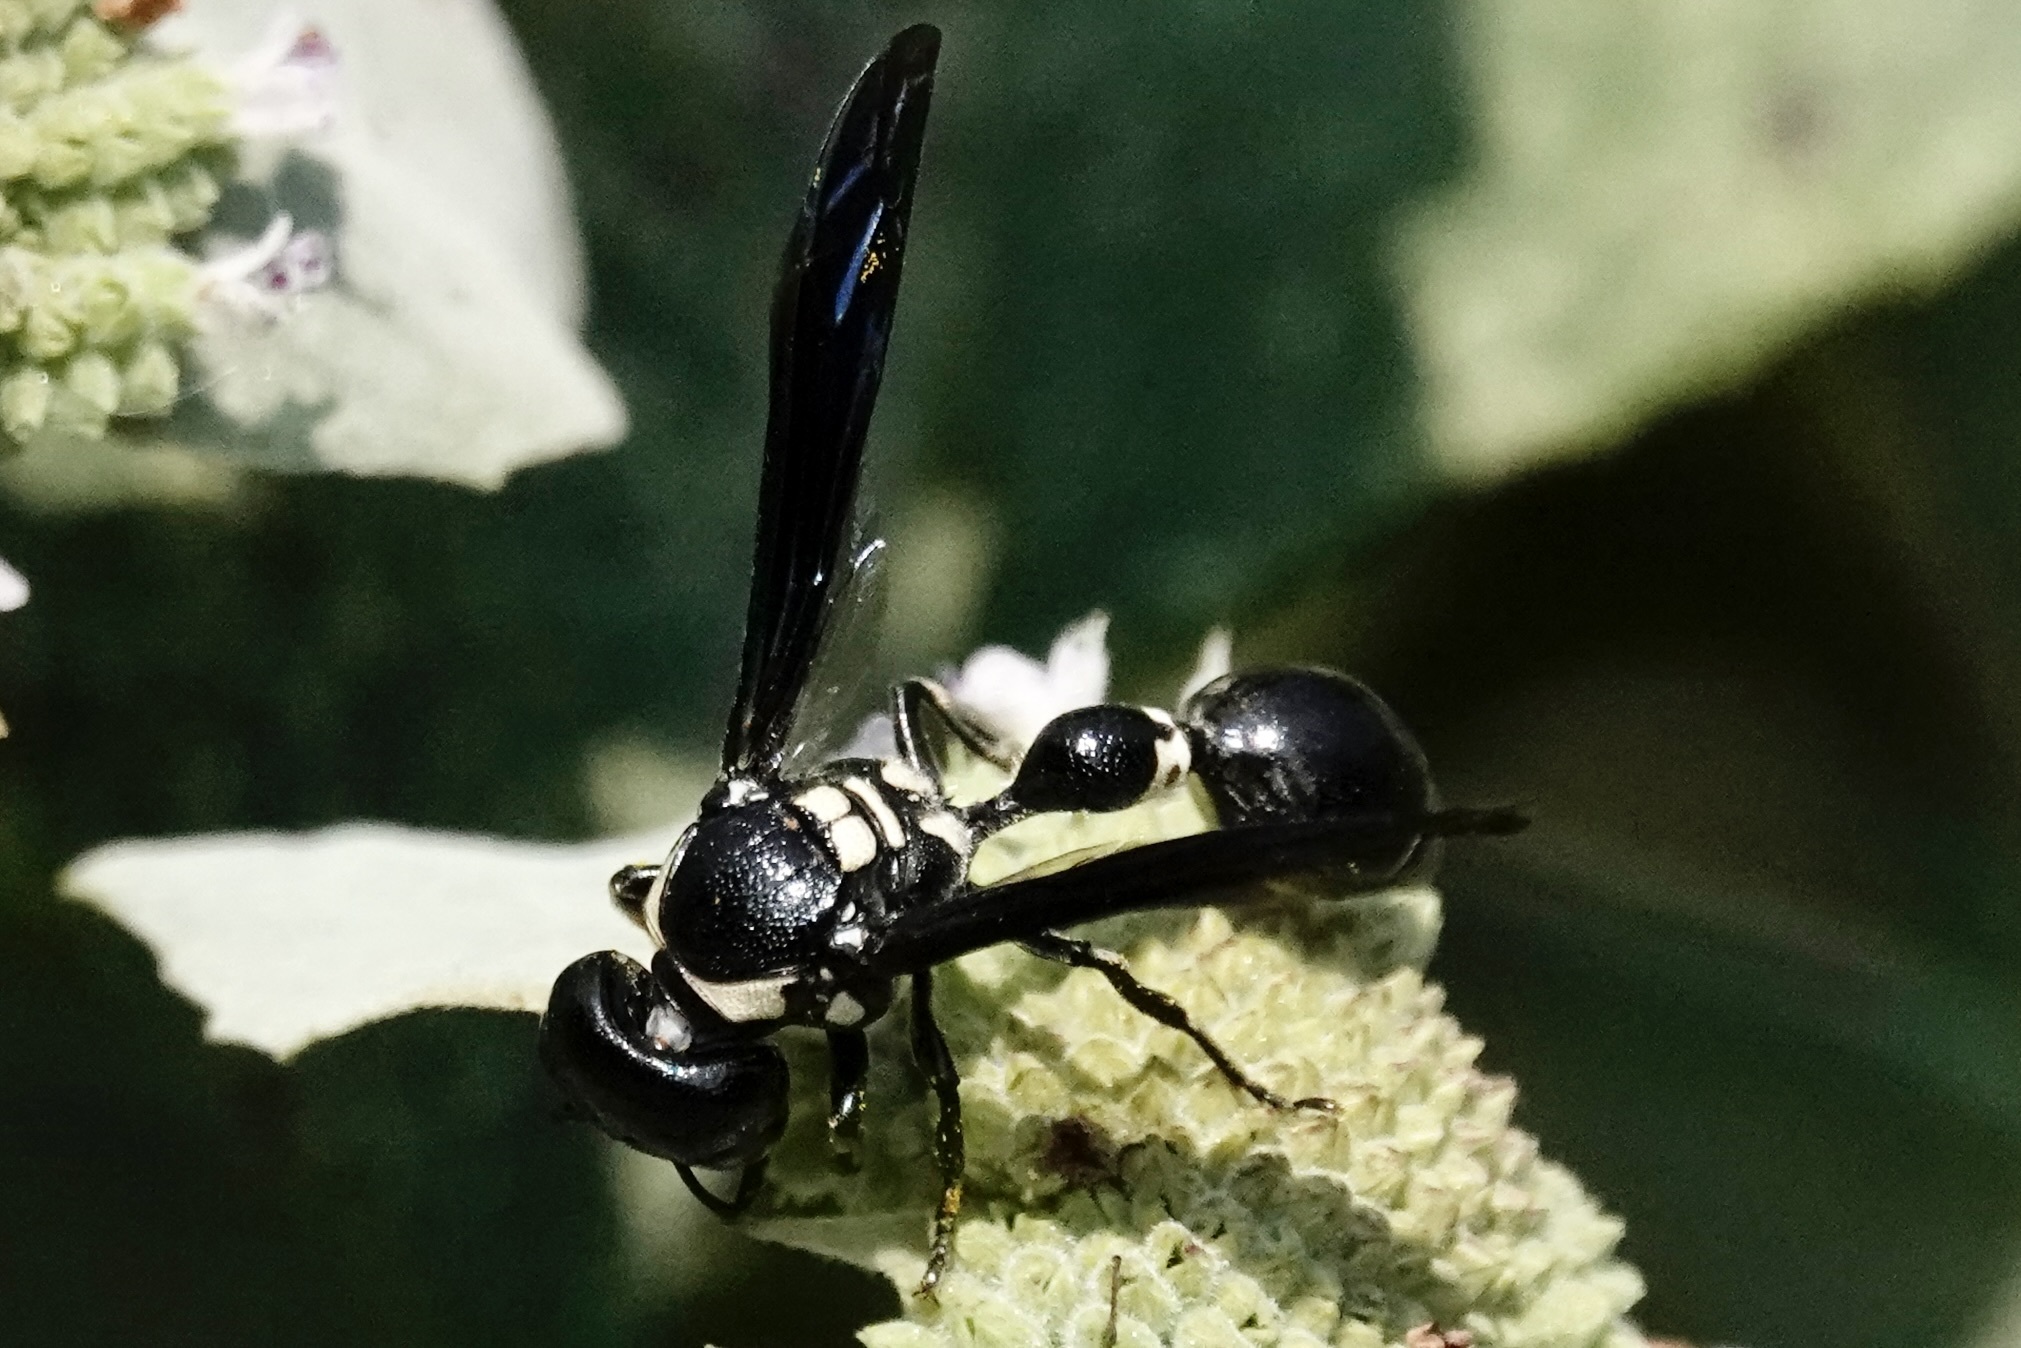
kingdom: Animalia
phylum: Arthropoda
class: Insecta
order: Hymenoptera
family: Eumenidae
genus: Zethus
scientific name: Zethus spinipes
